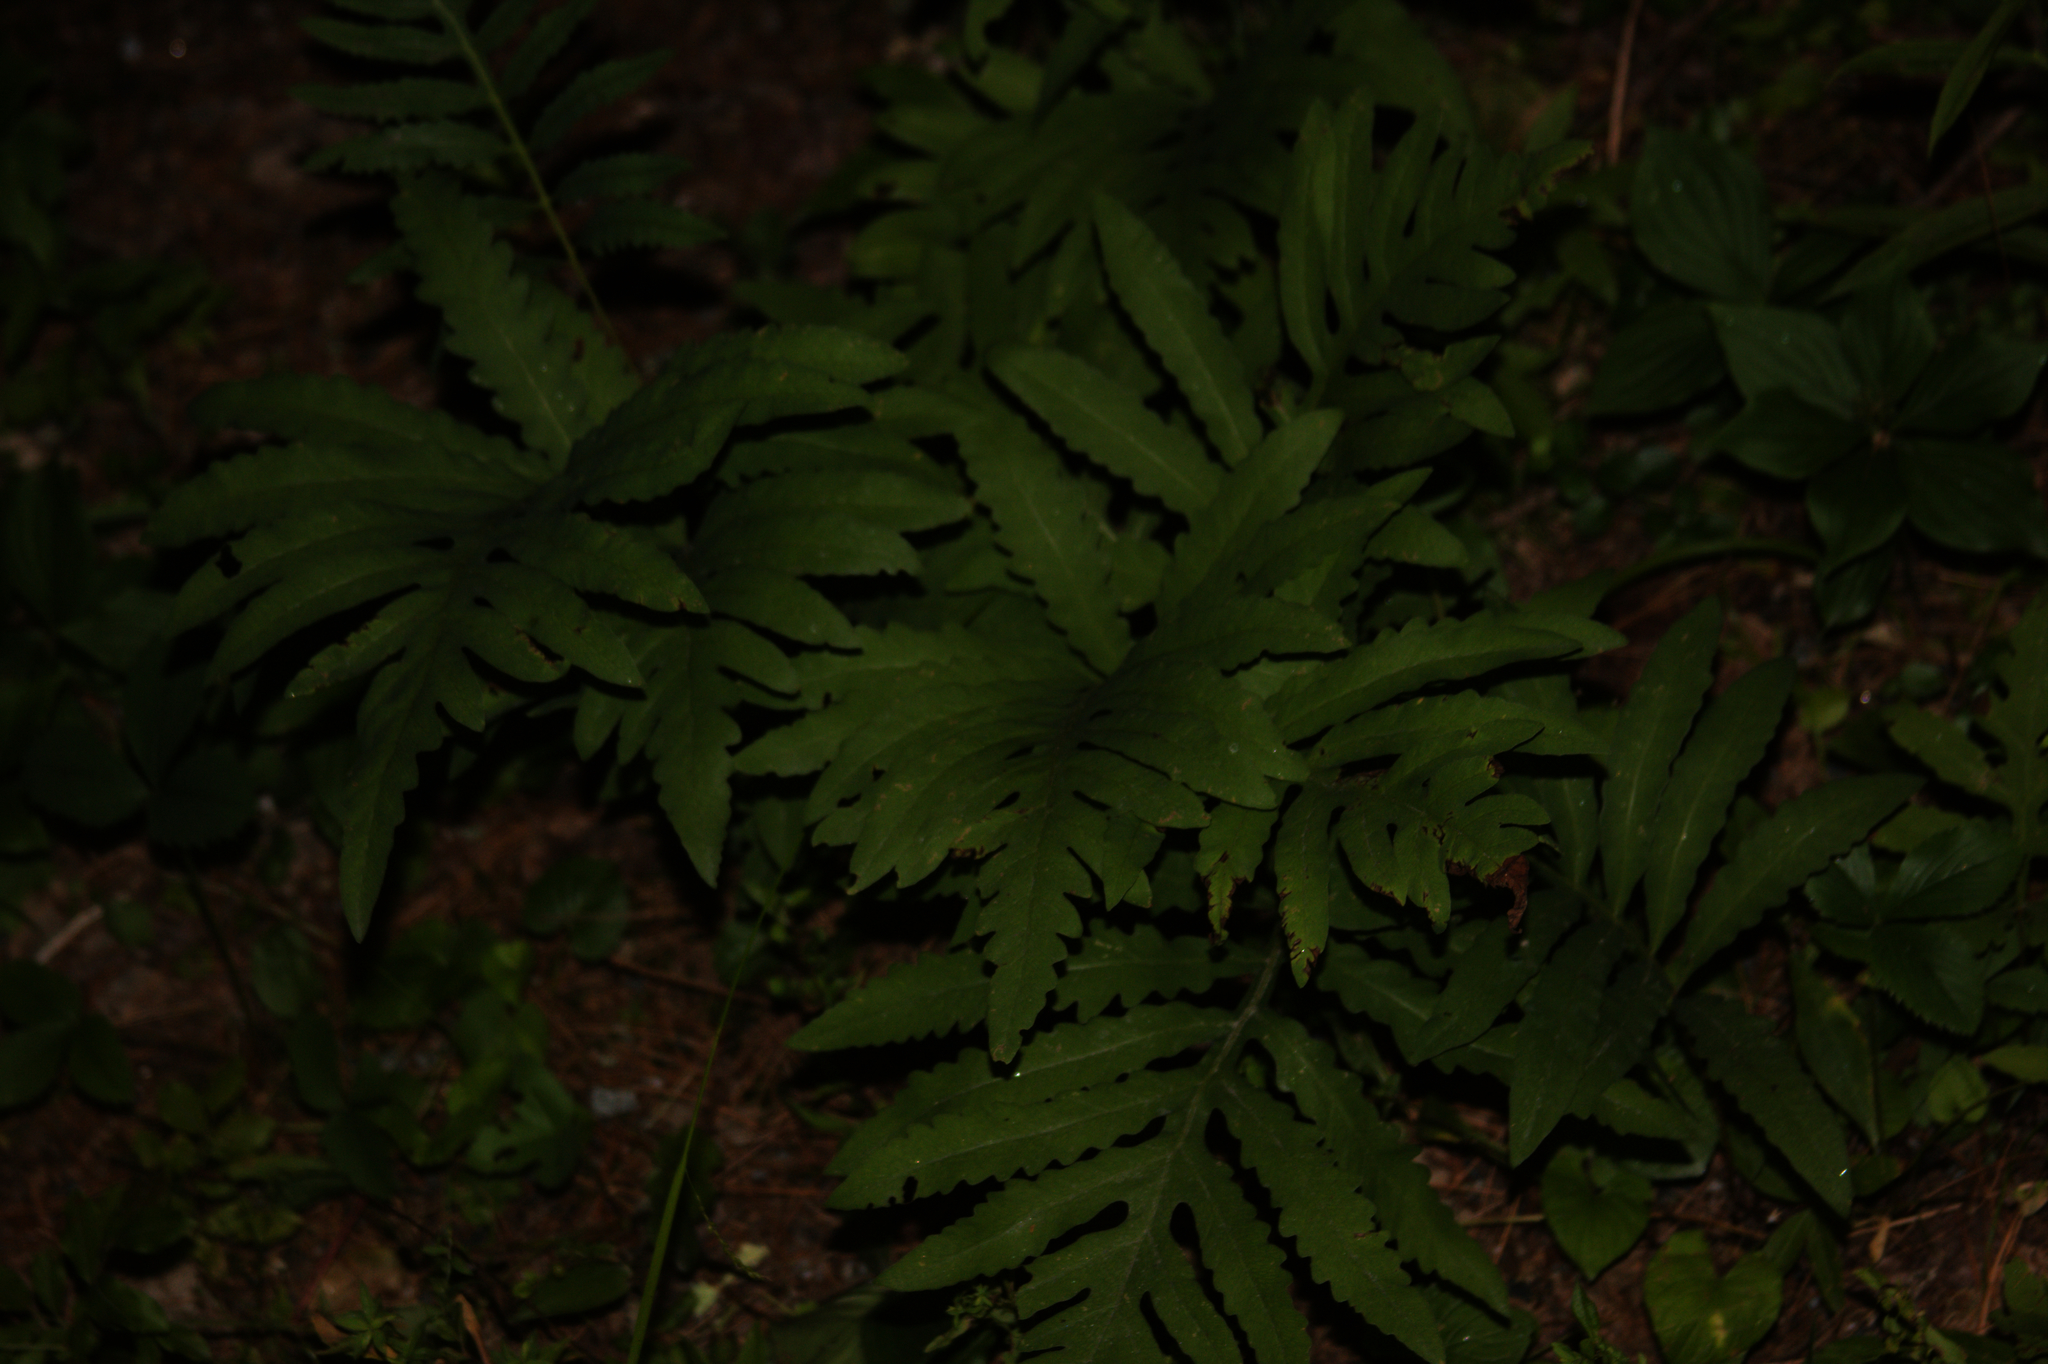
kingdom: Plantae
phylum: Tracheophyta
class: Polypodiopsida
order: Polypodiales
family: Onocleaceae
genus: Onoclea
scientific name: Onoclea sensibilis
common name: Sensitive fern
